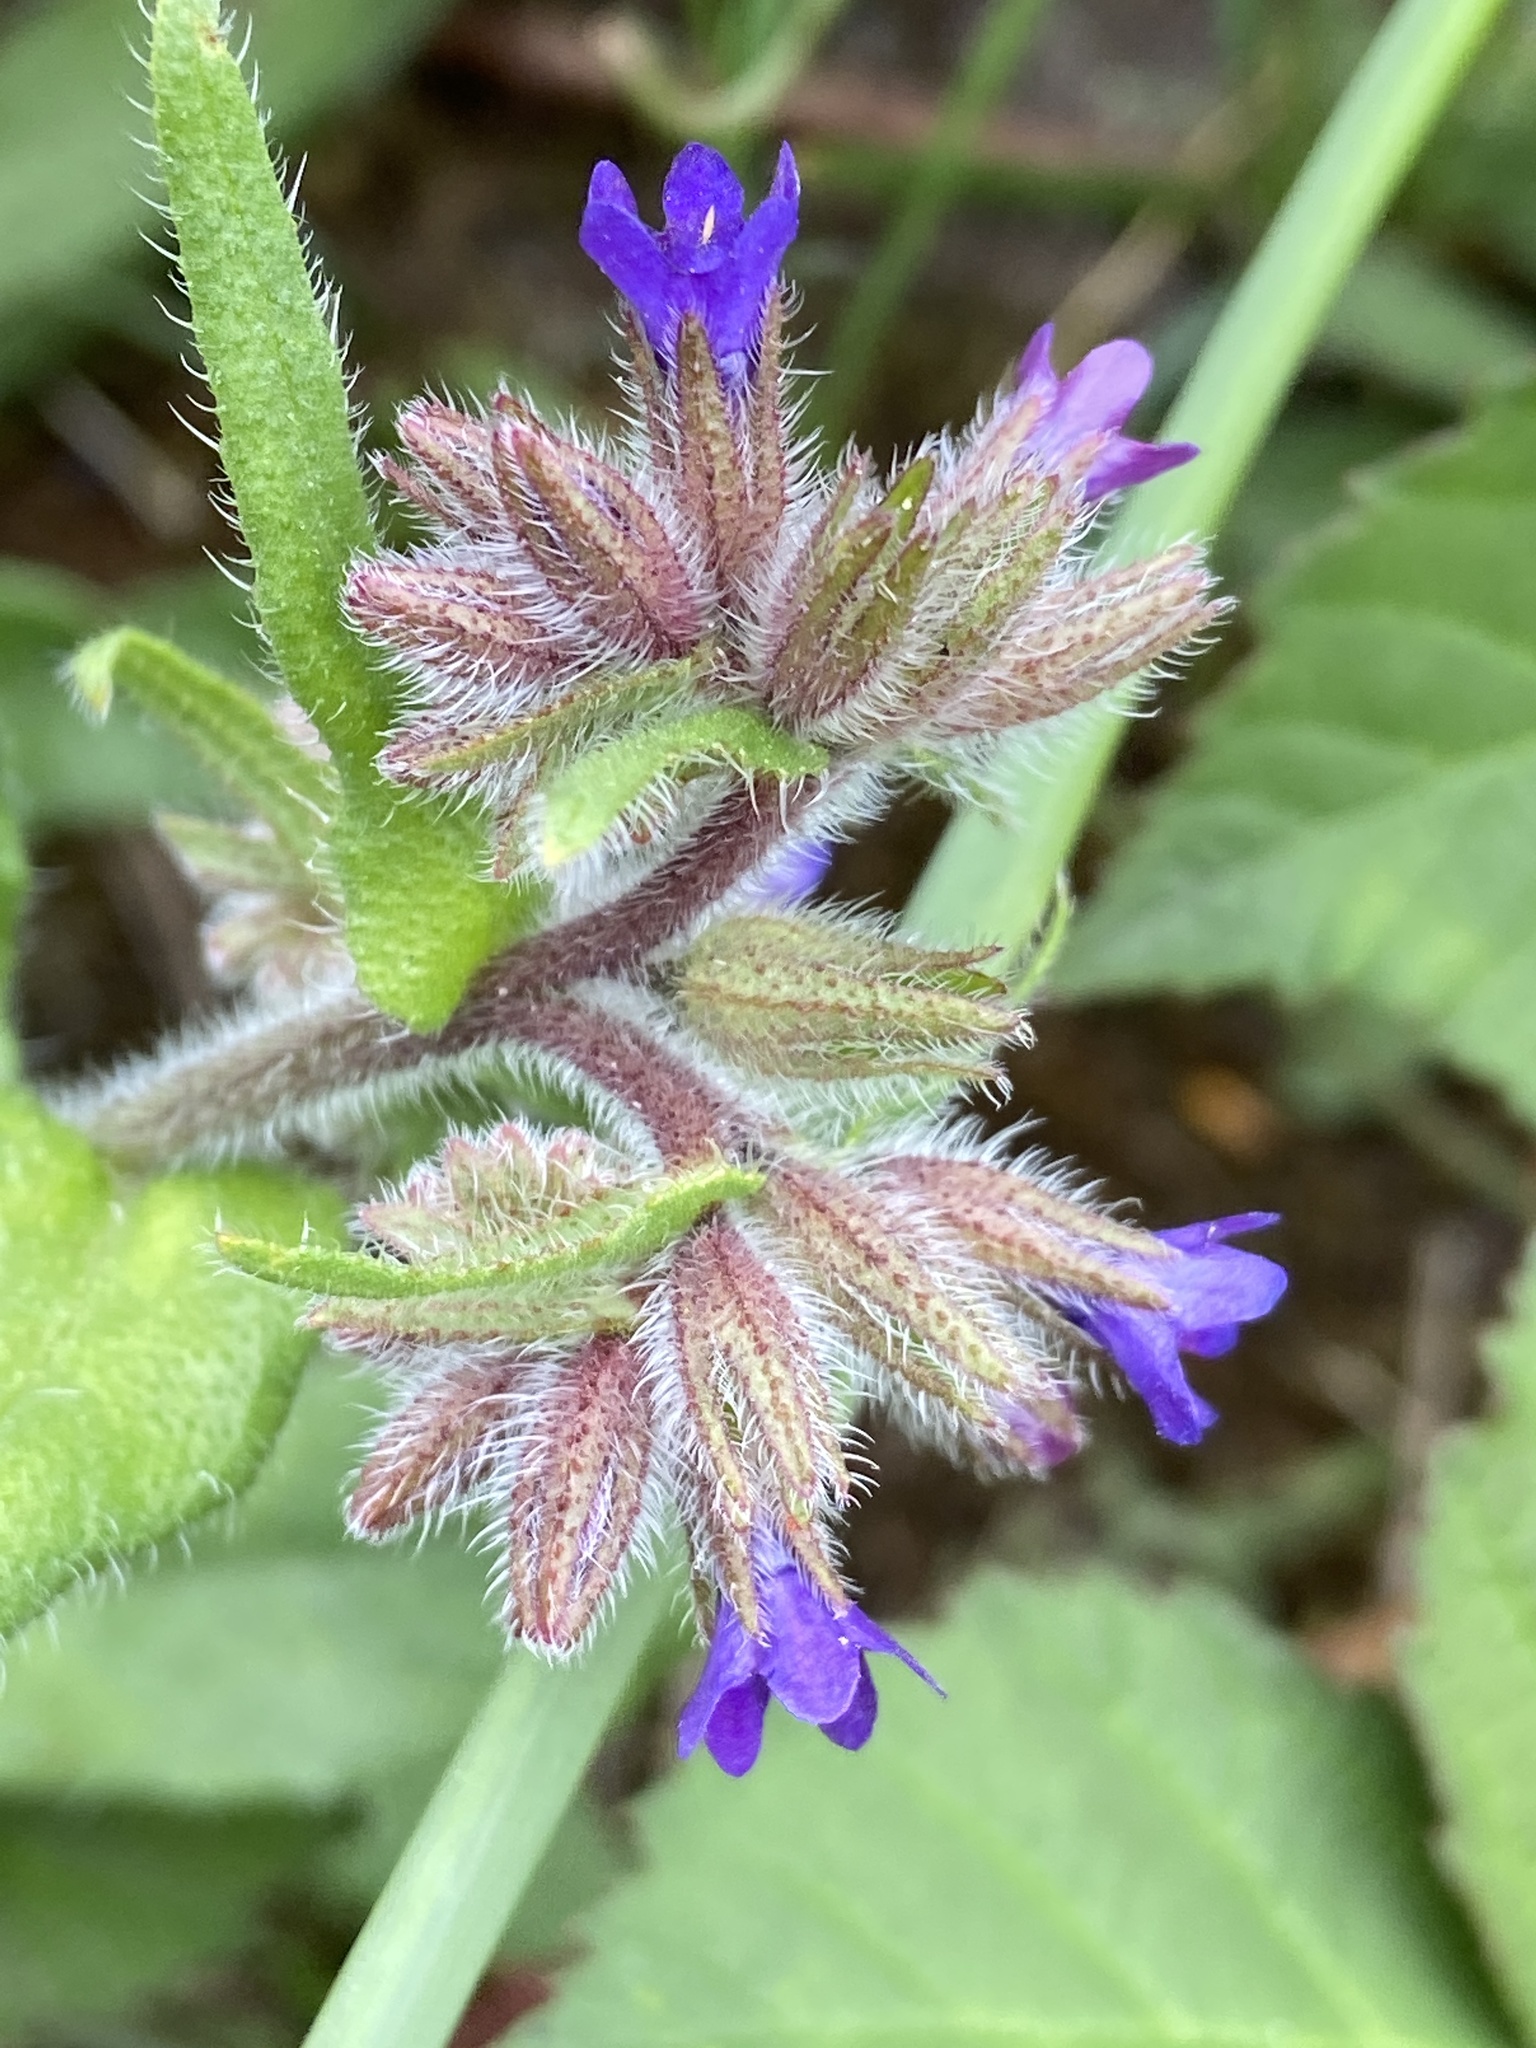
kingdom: Plantae
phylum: Tracheophyta
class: Magnoliopsida
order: Boraginales
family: Boraginaceae
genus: Anchusa
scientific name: Anchusa officinalis
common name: Alkanet
